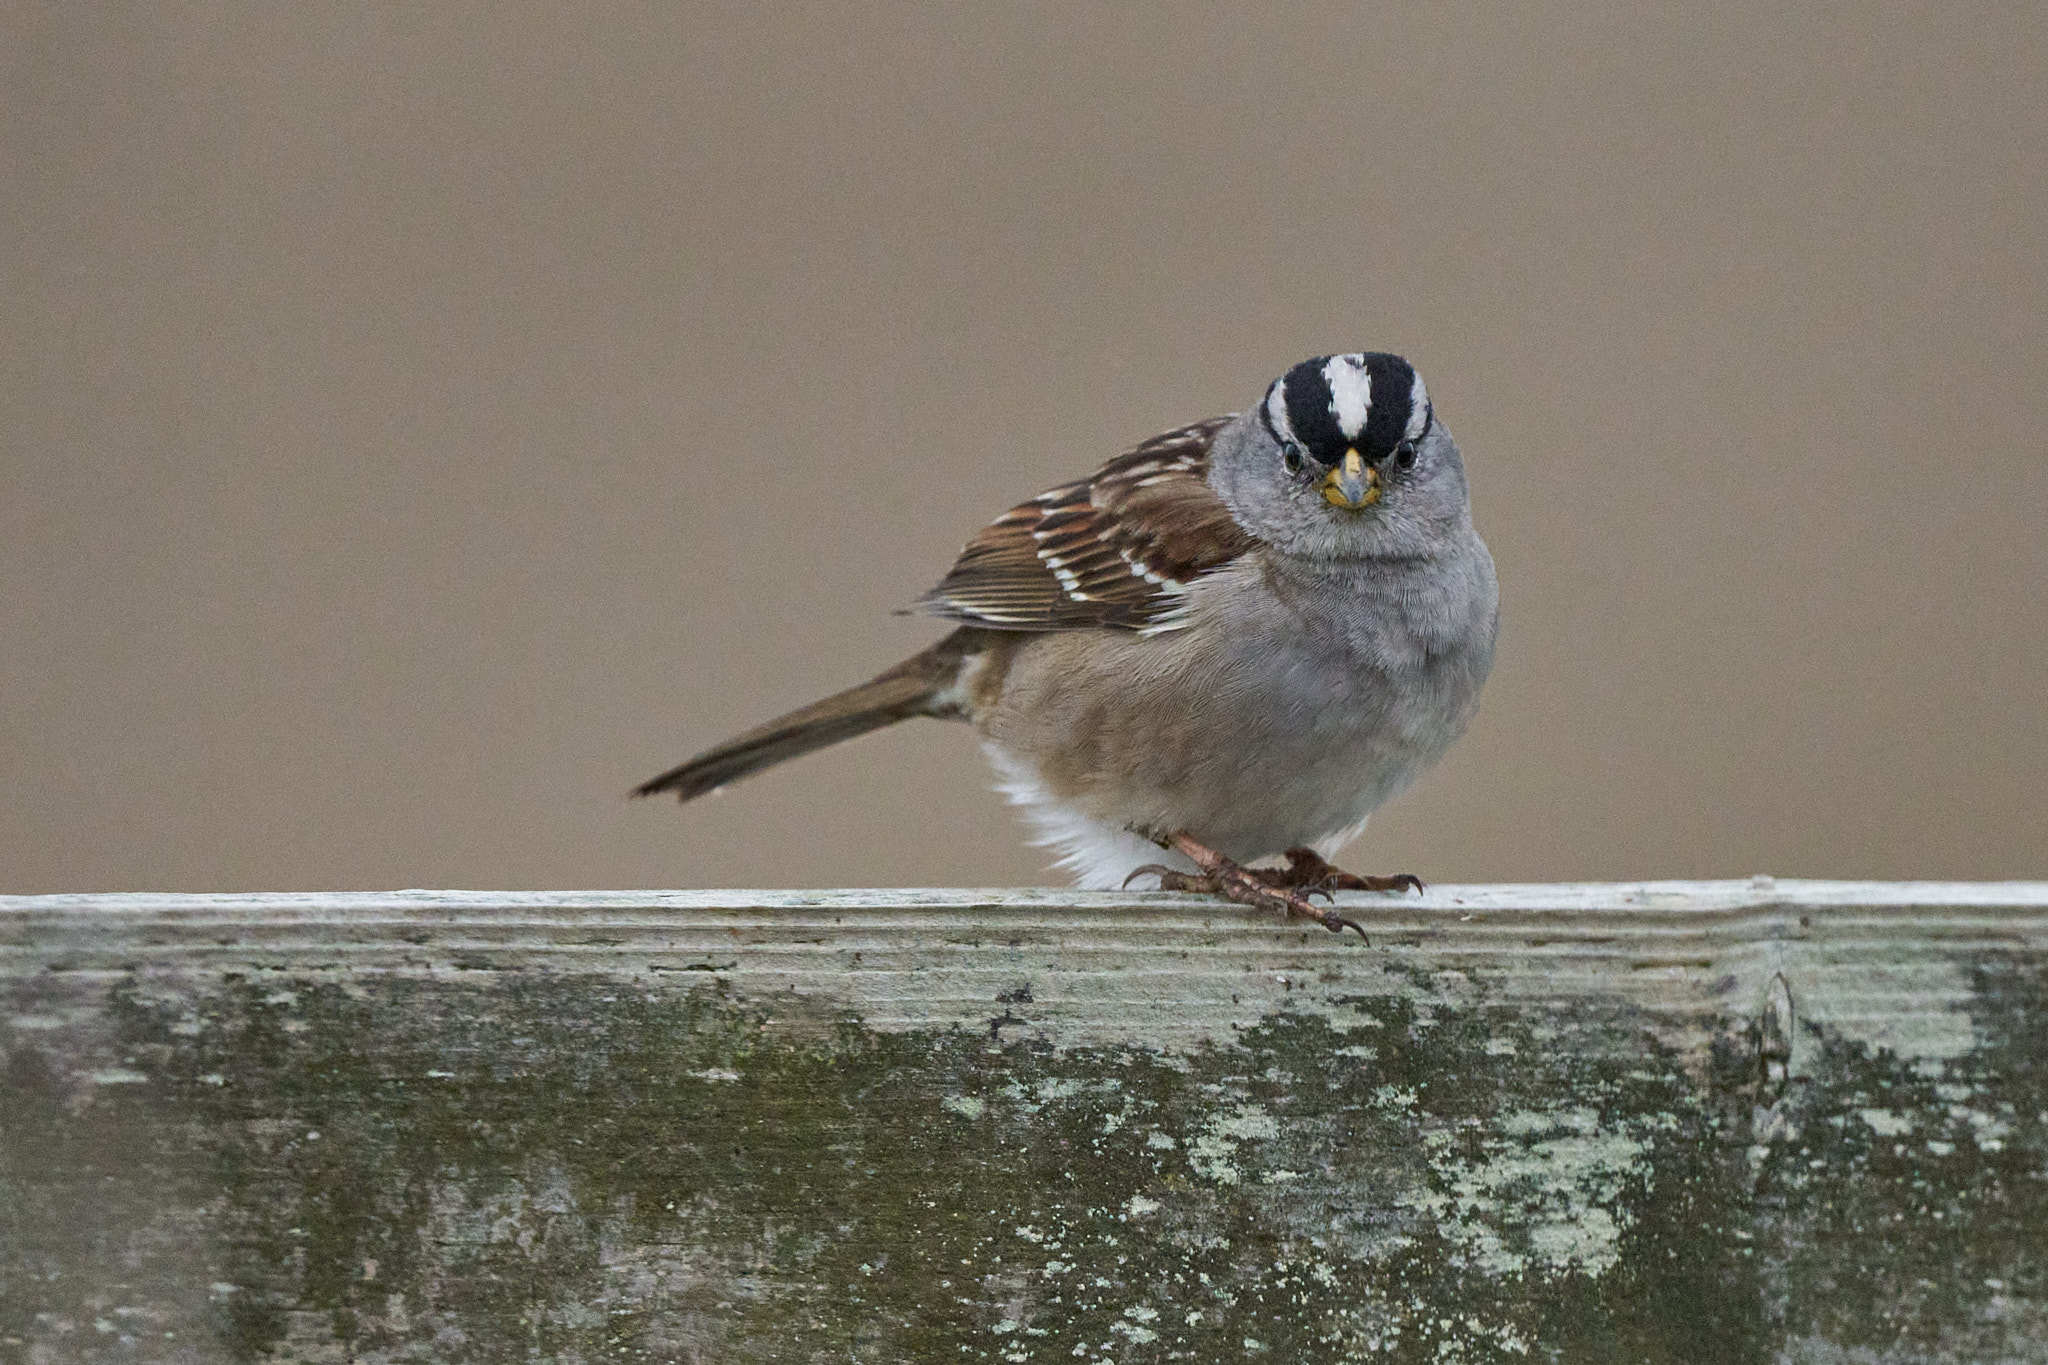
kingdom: Animalia
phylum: Chordata
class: Aves
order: Passeriformes
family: Passerellidae
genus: Zonotrichia
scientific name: Zonotrichia leucophrys
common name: White-crowned sparrow
